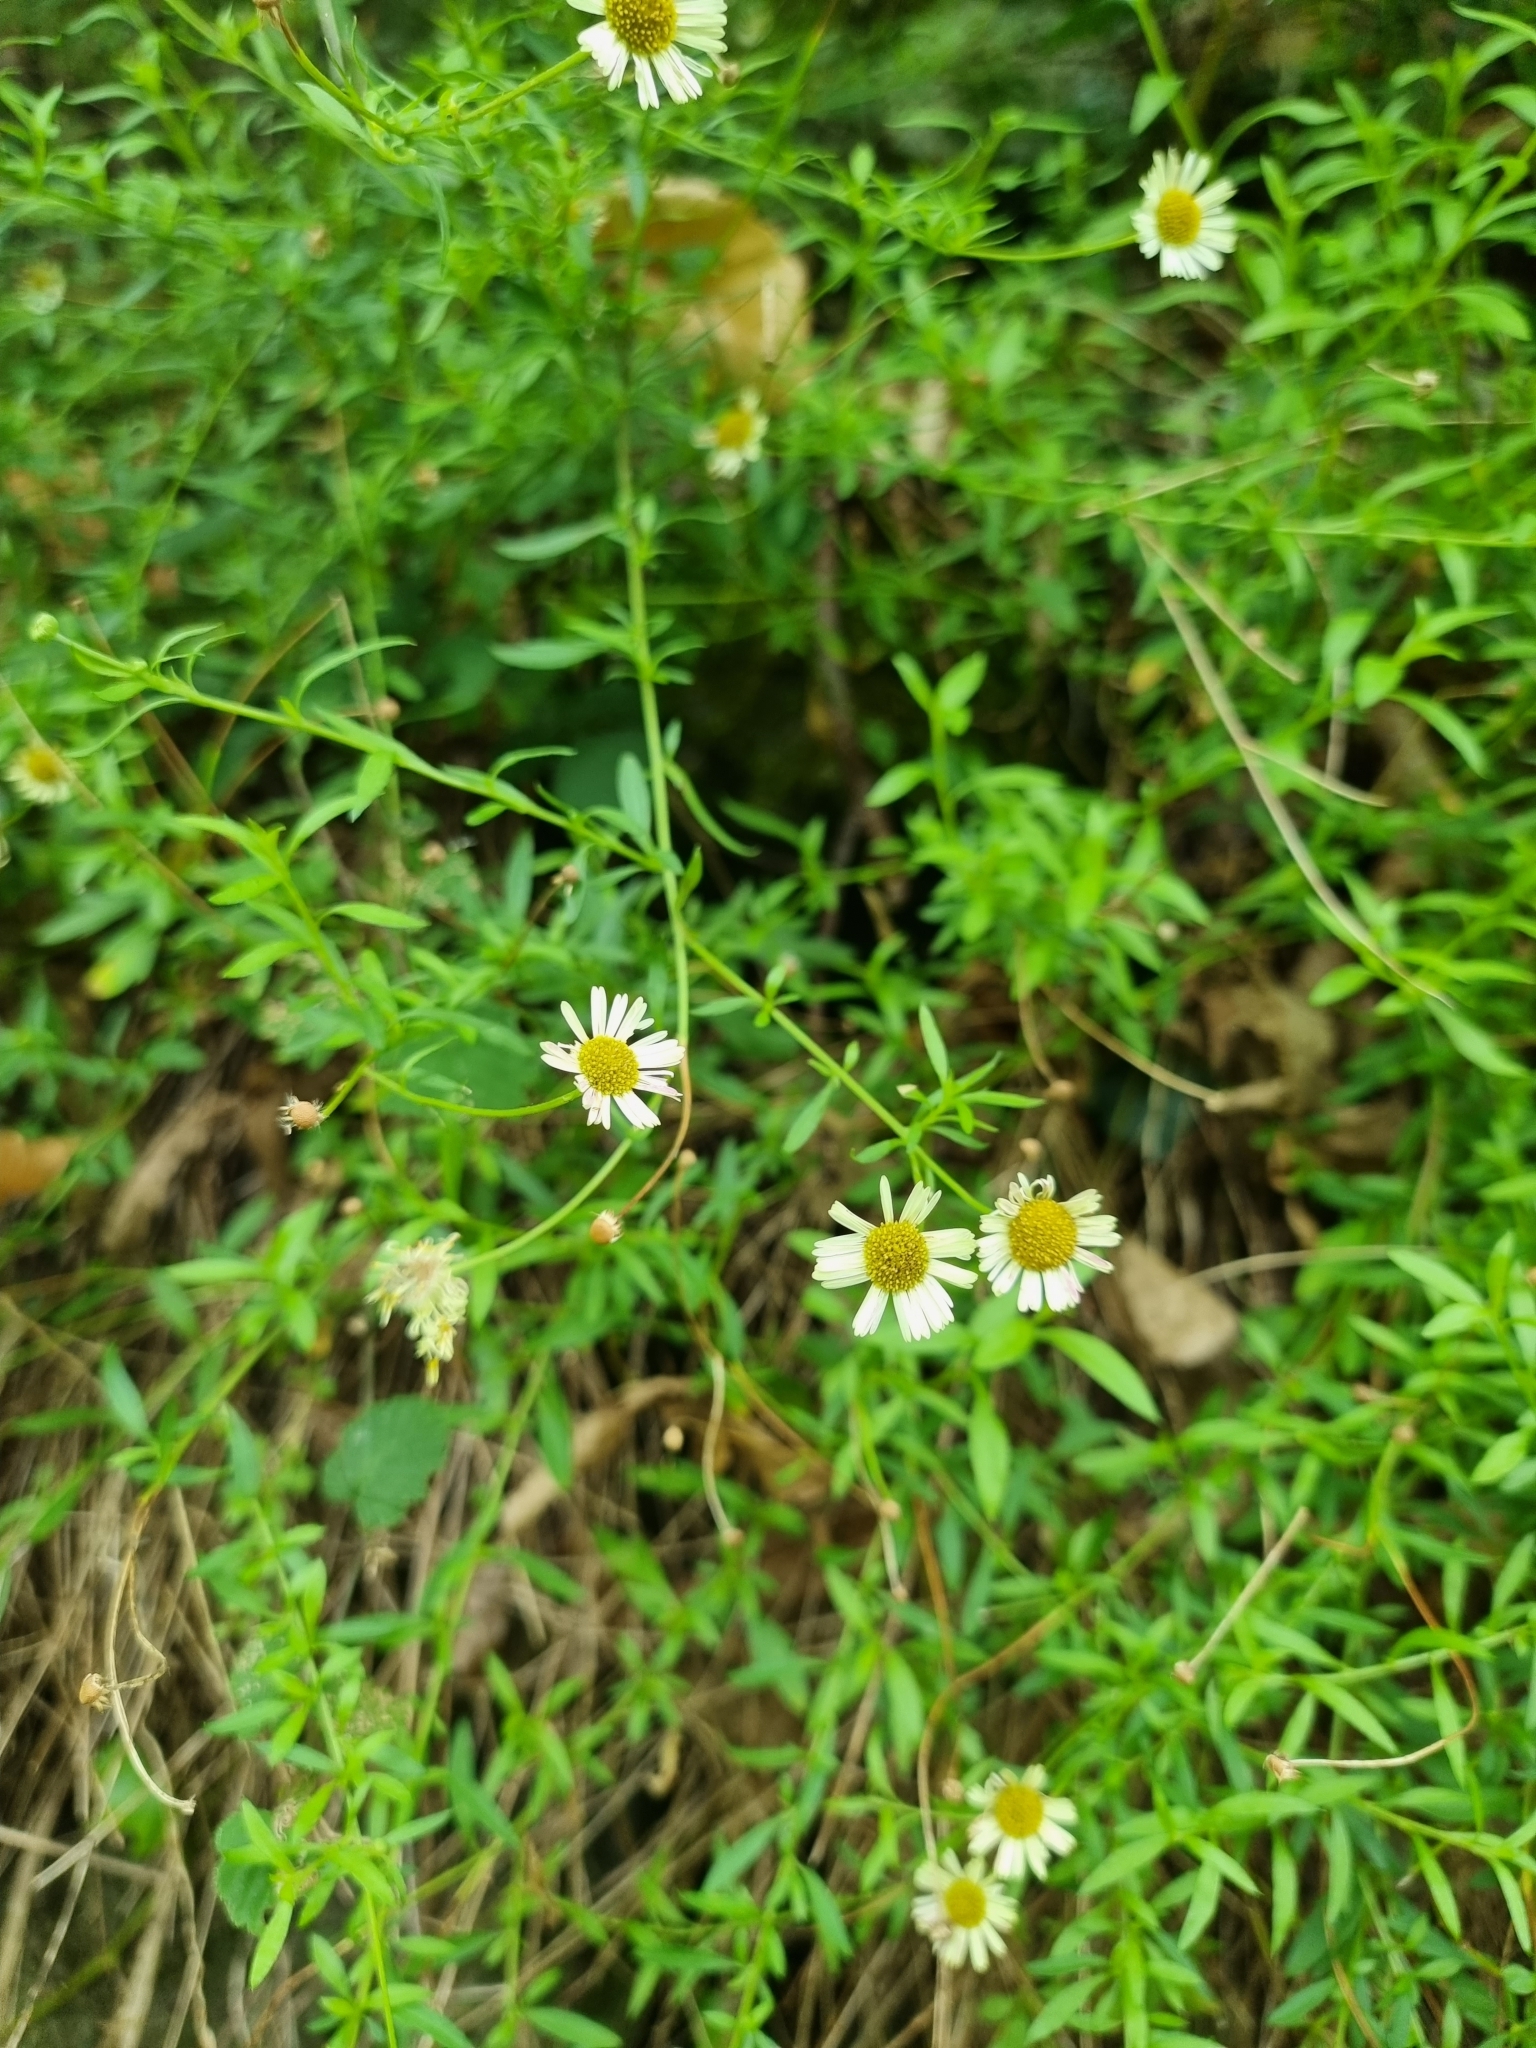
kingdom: Plantae
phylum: Tracheophyta
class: Magnoliopsida
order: Asterales
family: Asteraceae
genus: Erigeron
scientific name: Erigeron karvinskianus
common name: Mexican fleabane
